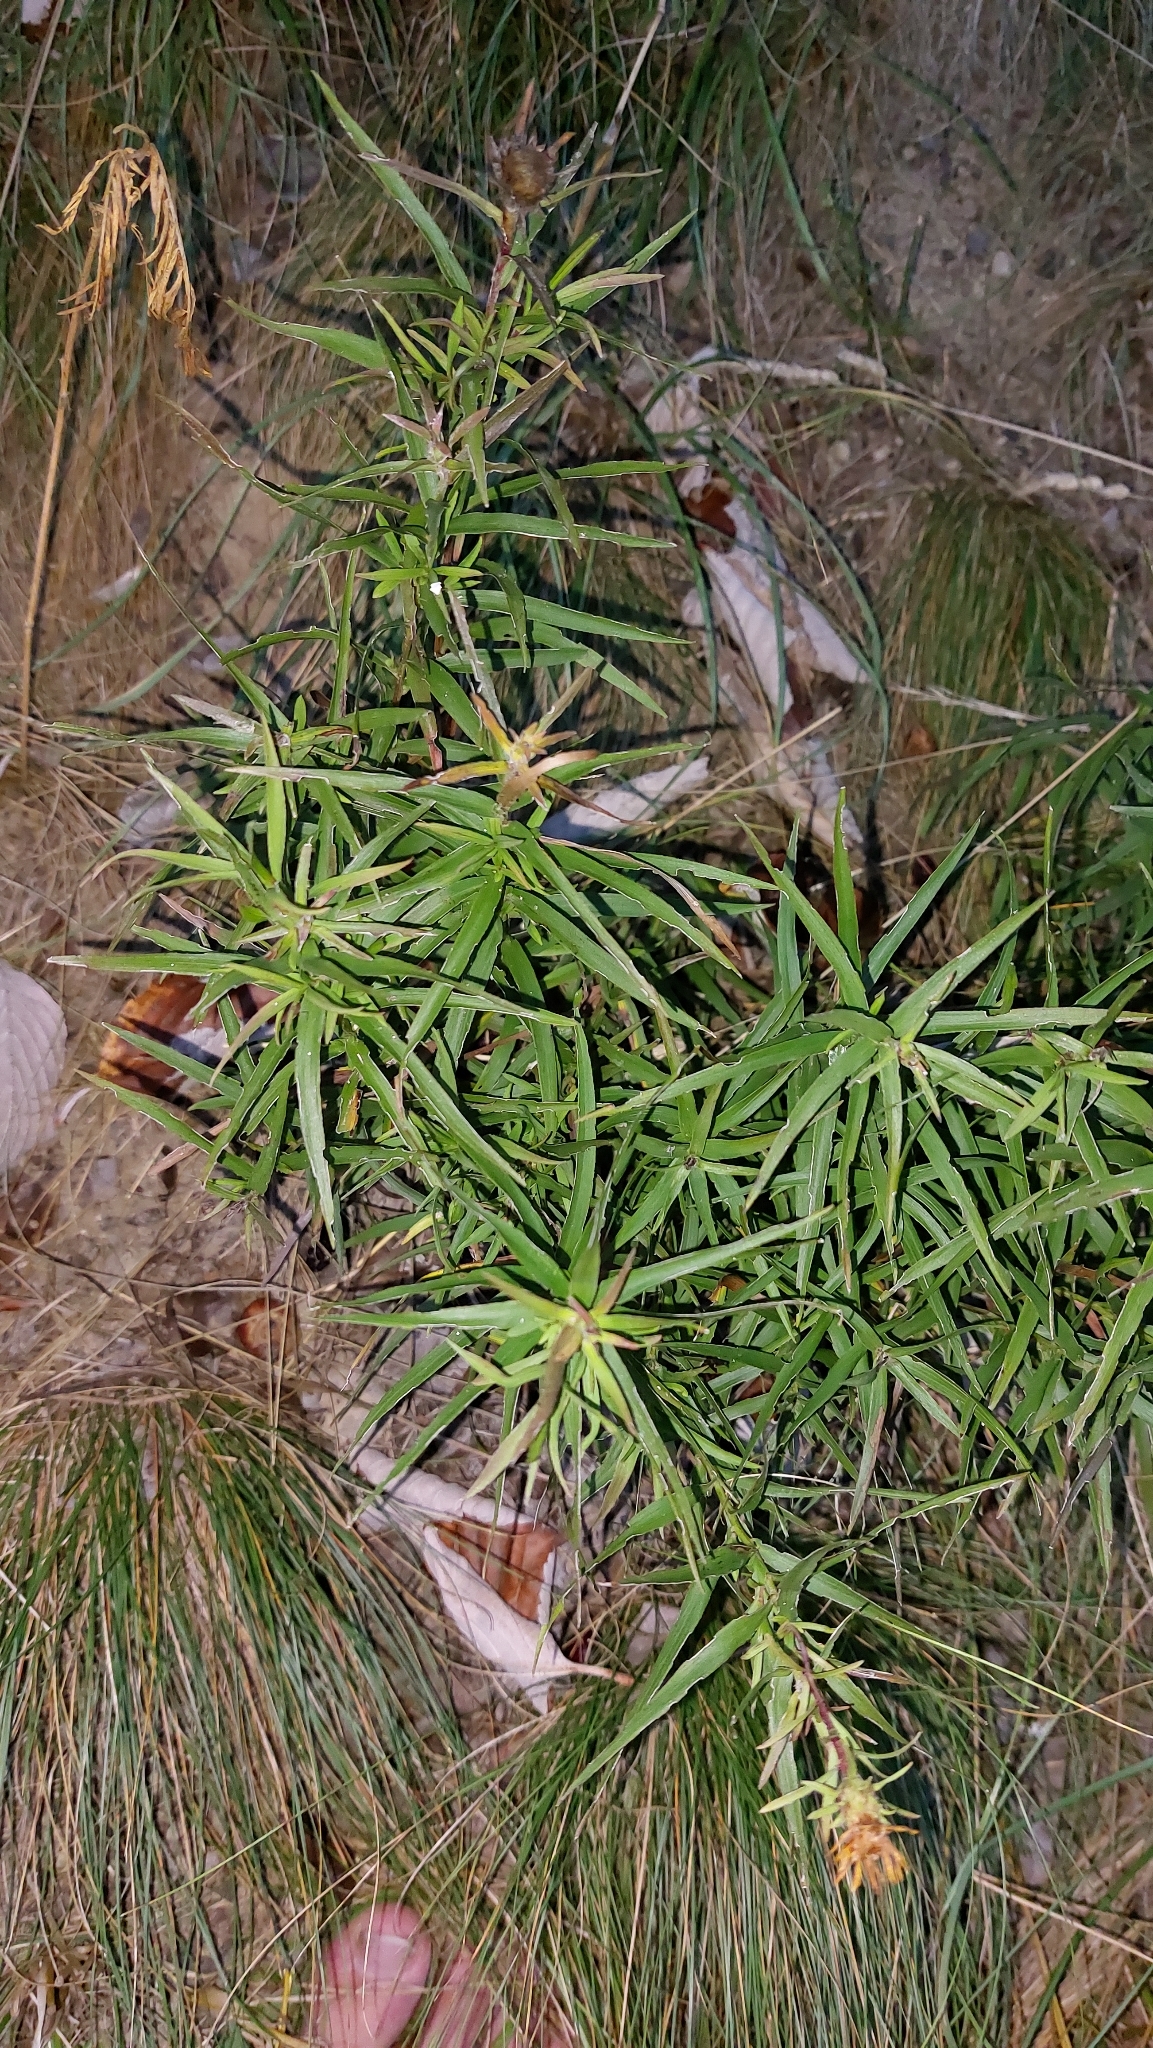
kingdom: Plantae
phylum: Tracheophyta
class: Magnoliopsida
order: Asterales
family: Asteraceae
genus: Pentanema
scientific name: Pentanema ensifolium
